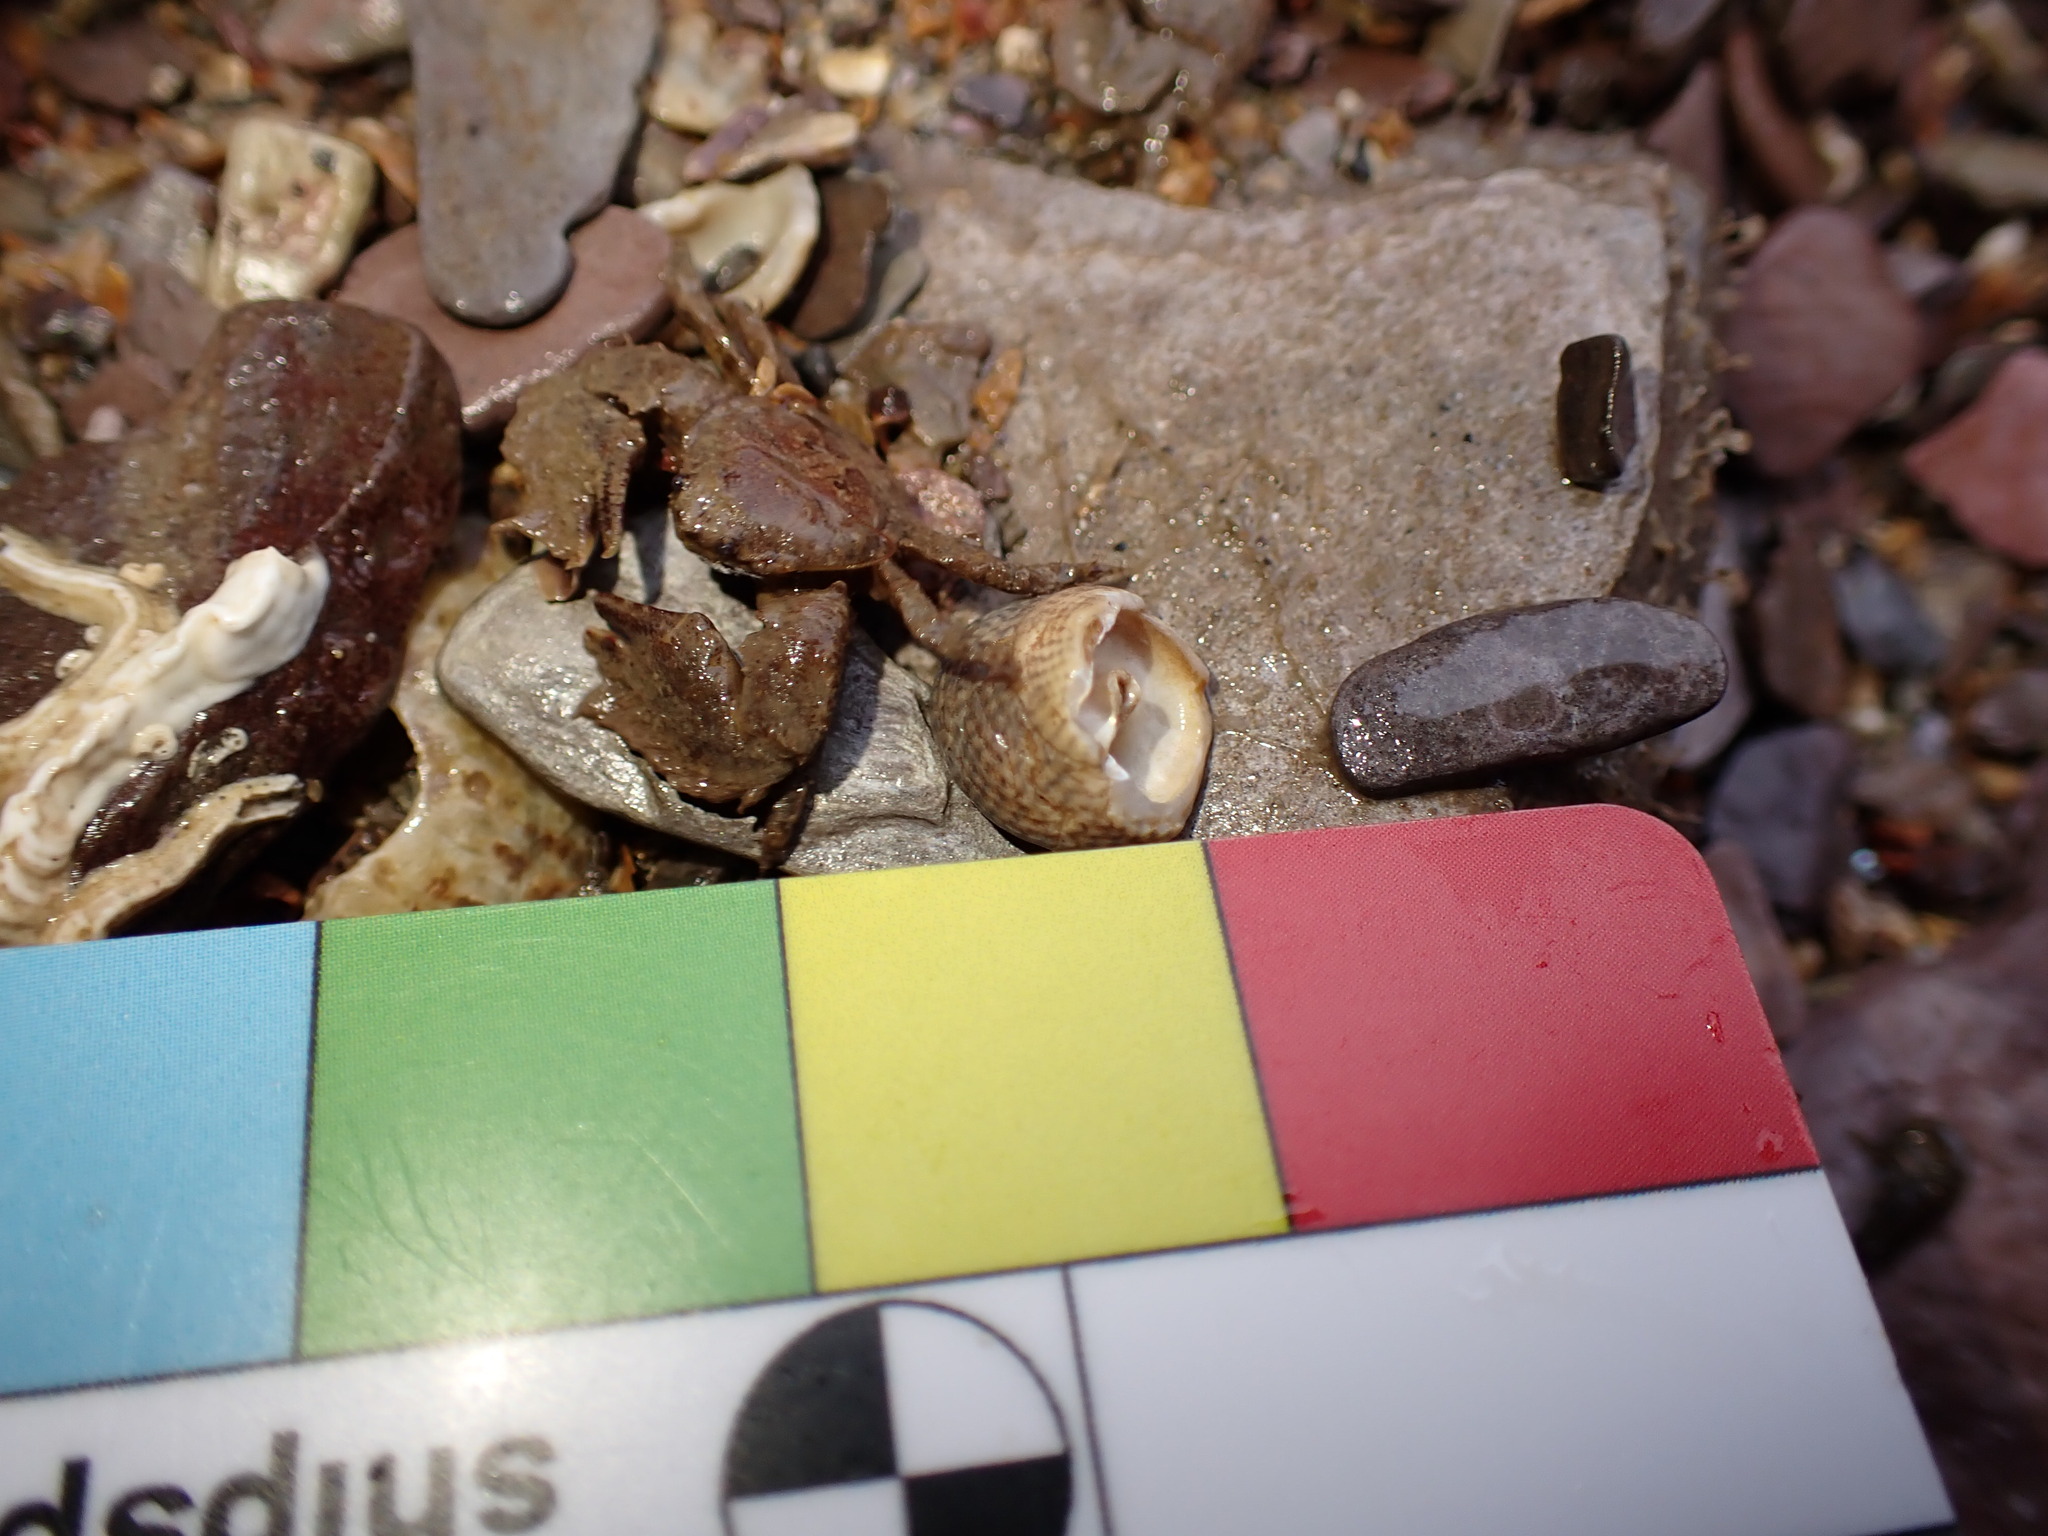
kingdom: Animalia
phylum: Arthropoda
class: Malacostraca
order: Decapoda
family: Porcellanidae
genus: Porcellana
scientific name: Porcellana platycheles
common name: Porcelain crab
